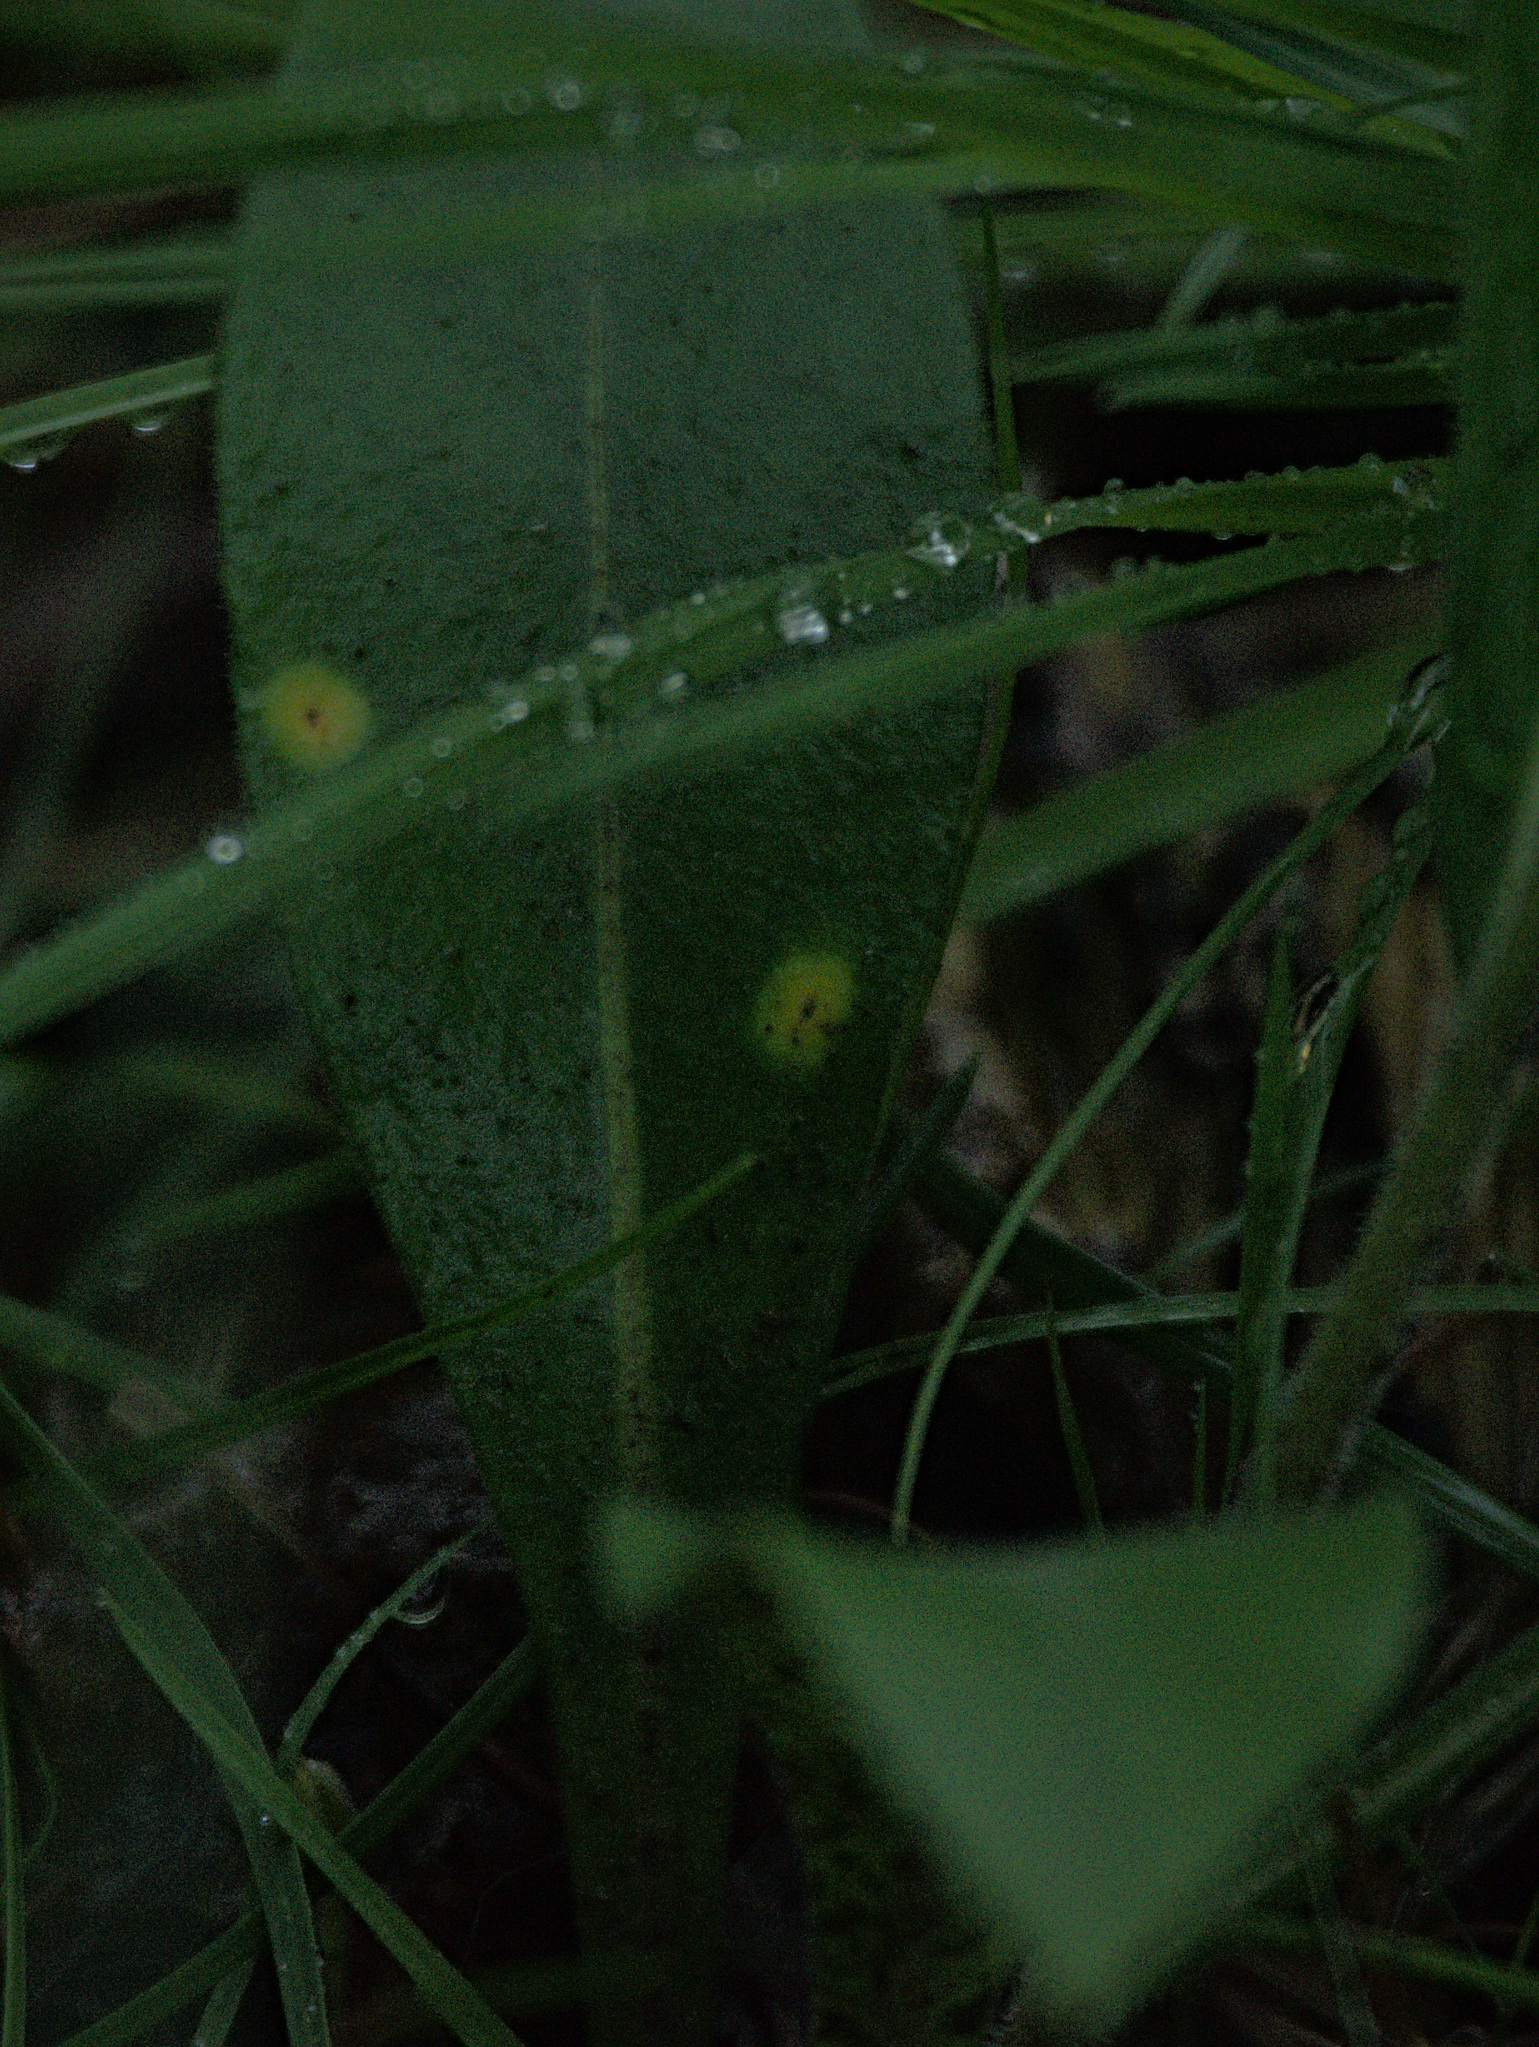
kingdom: Plantae
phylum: Tracheophyta
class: Magnoliopsida
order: Boraginales
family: Boraginaceae
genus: Pulmonaria
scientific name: Pulmonaria mollis
